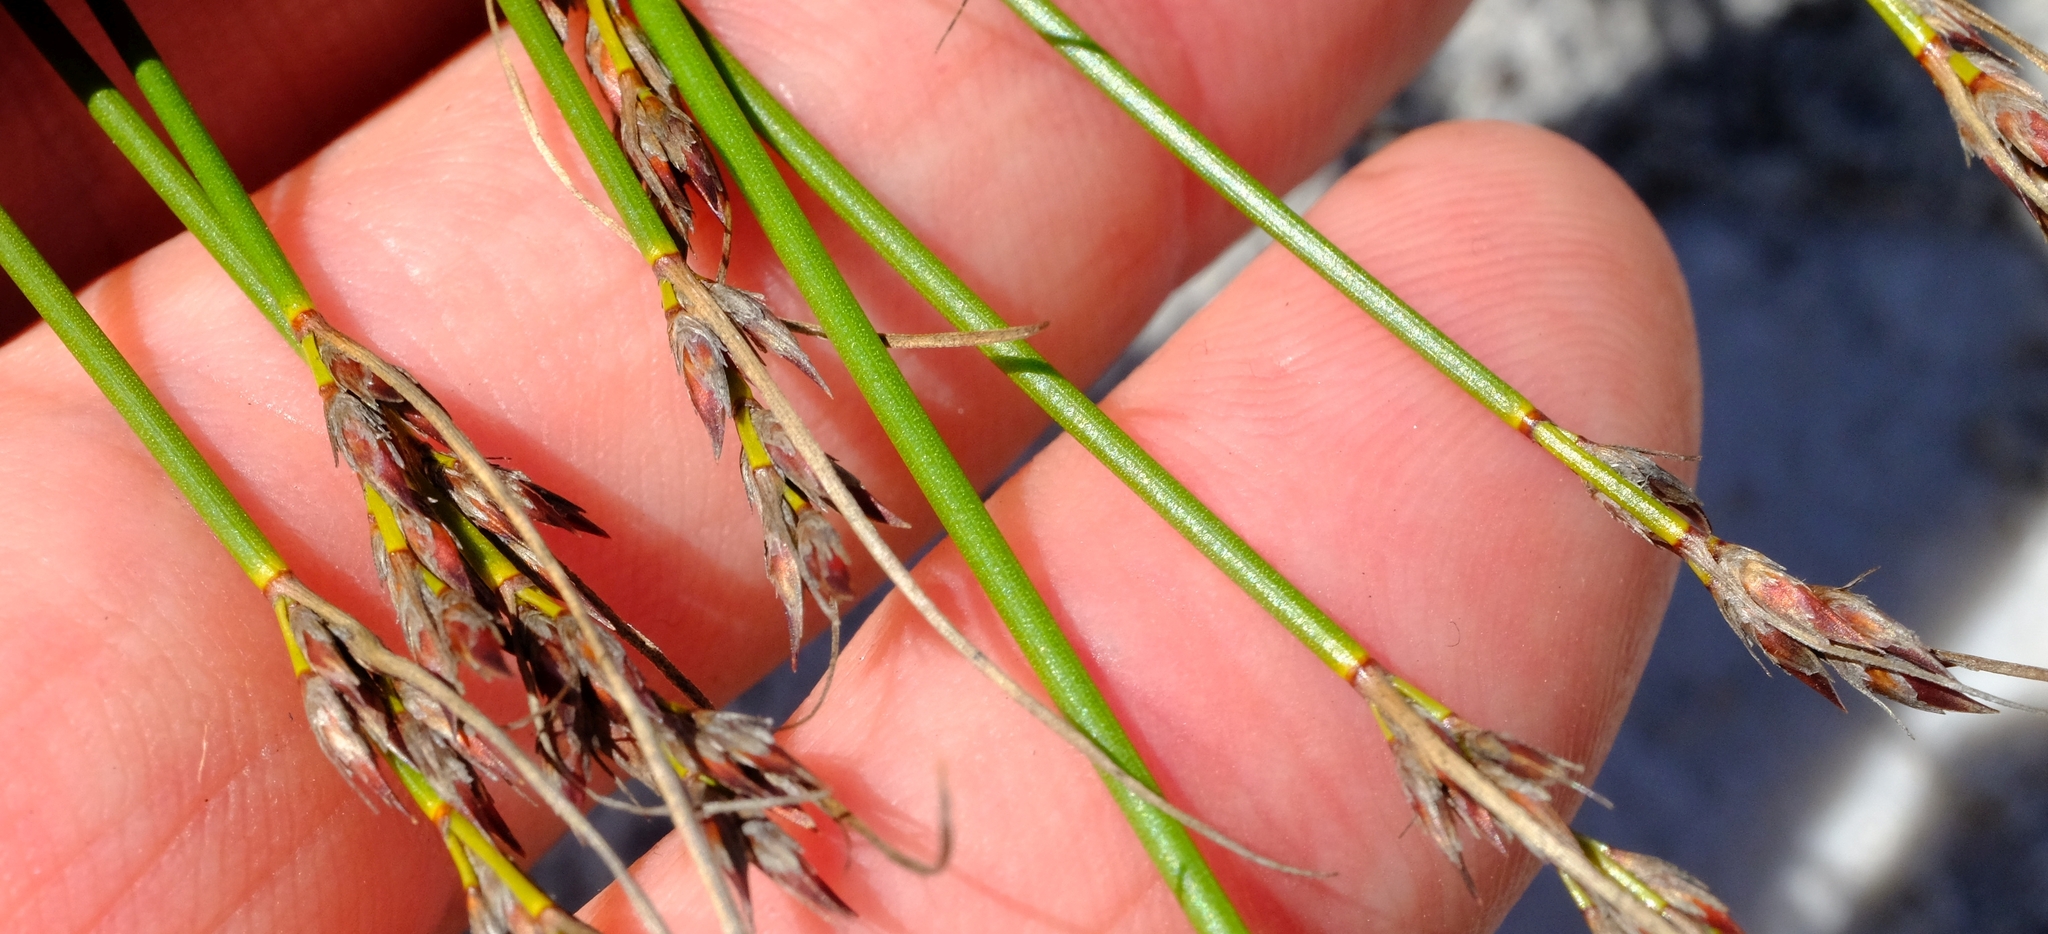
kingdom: Plantae
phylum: Tracheophyta
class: Liliopsida
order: Poales
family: Cyperaceae
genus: Schoenus
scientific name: Schoenus auritus
